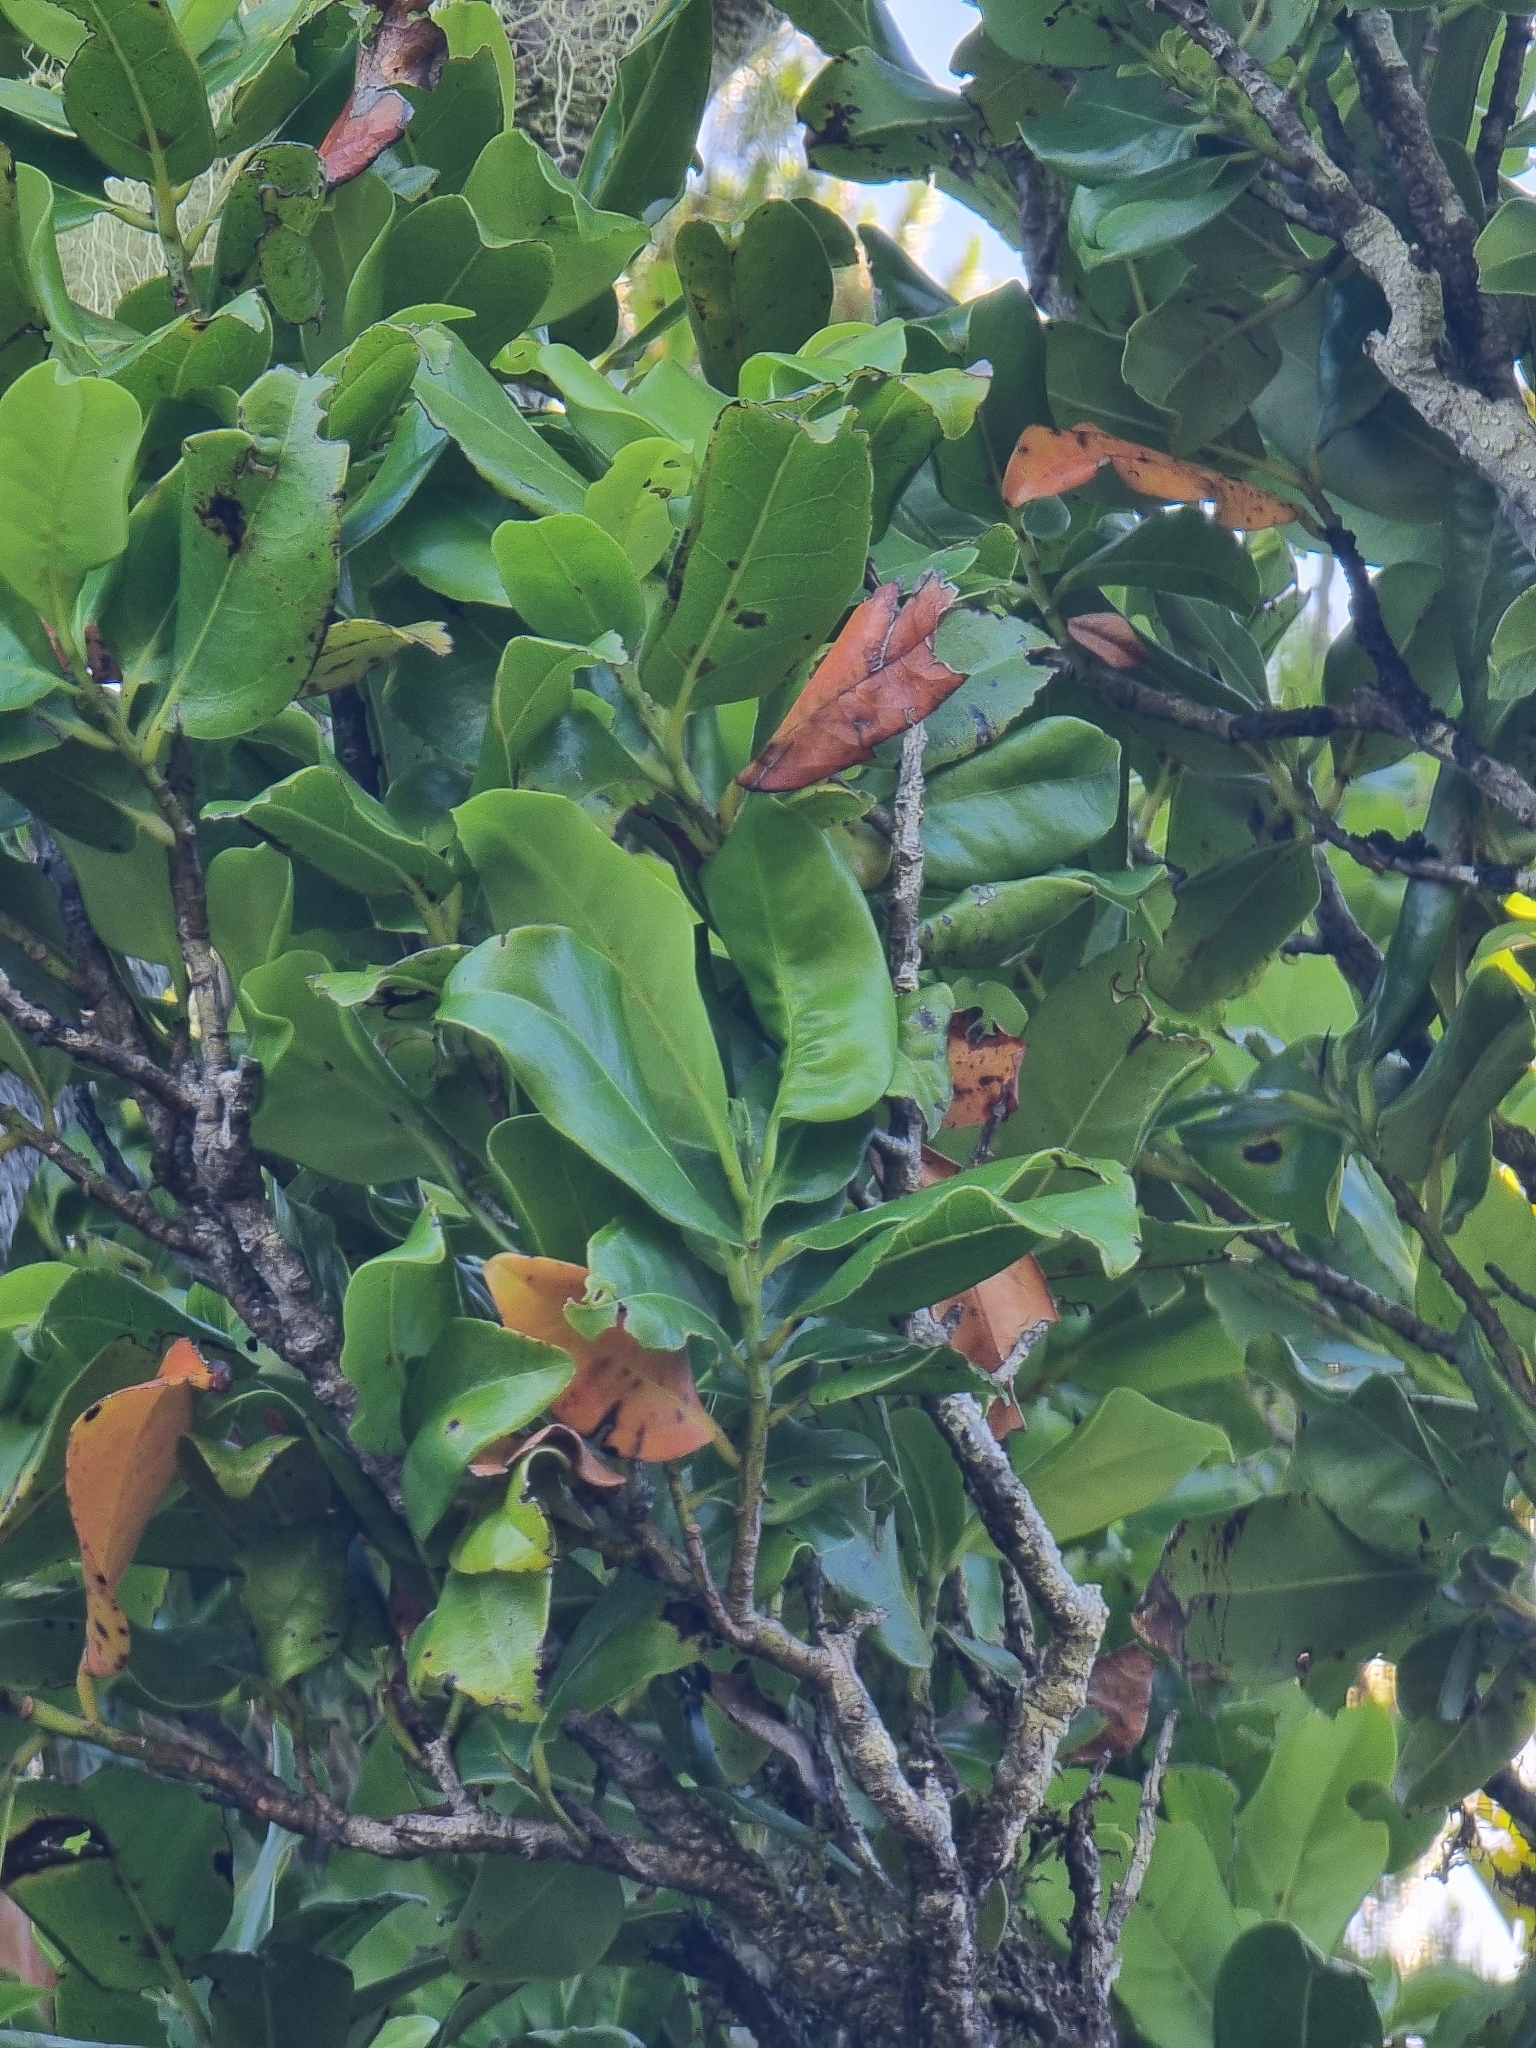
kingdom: Plantae
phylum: Tracheophyta
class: Magnoliopsida
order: Laurales
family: Lauraceae
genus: Mespilodaphne
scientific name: Mespilodaphne foetens
